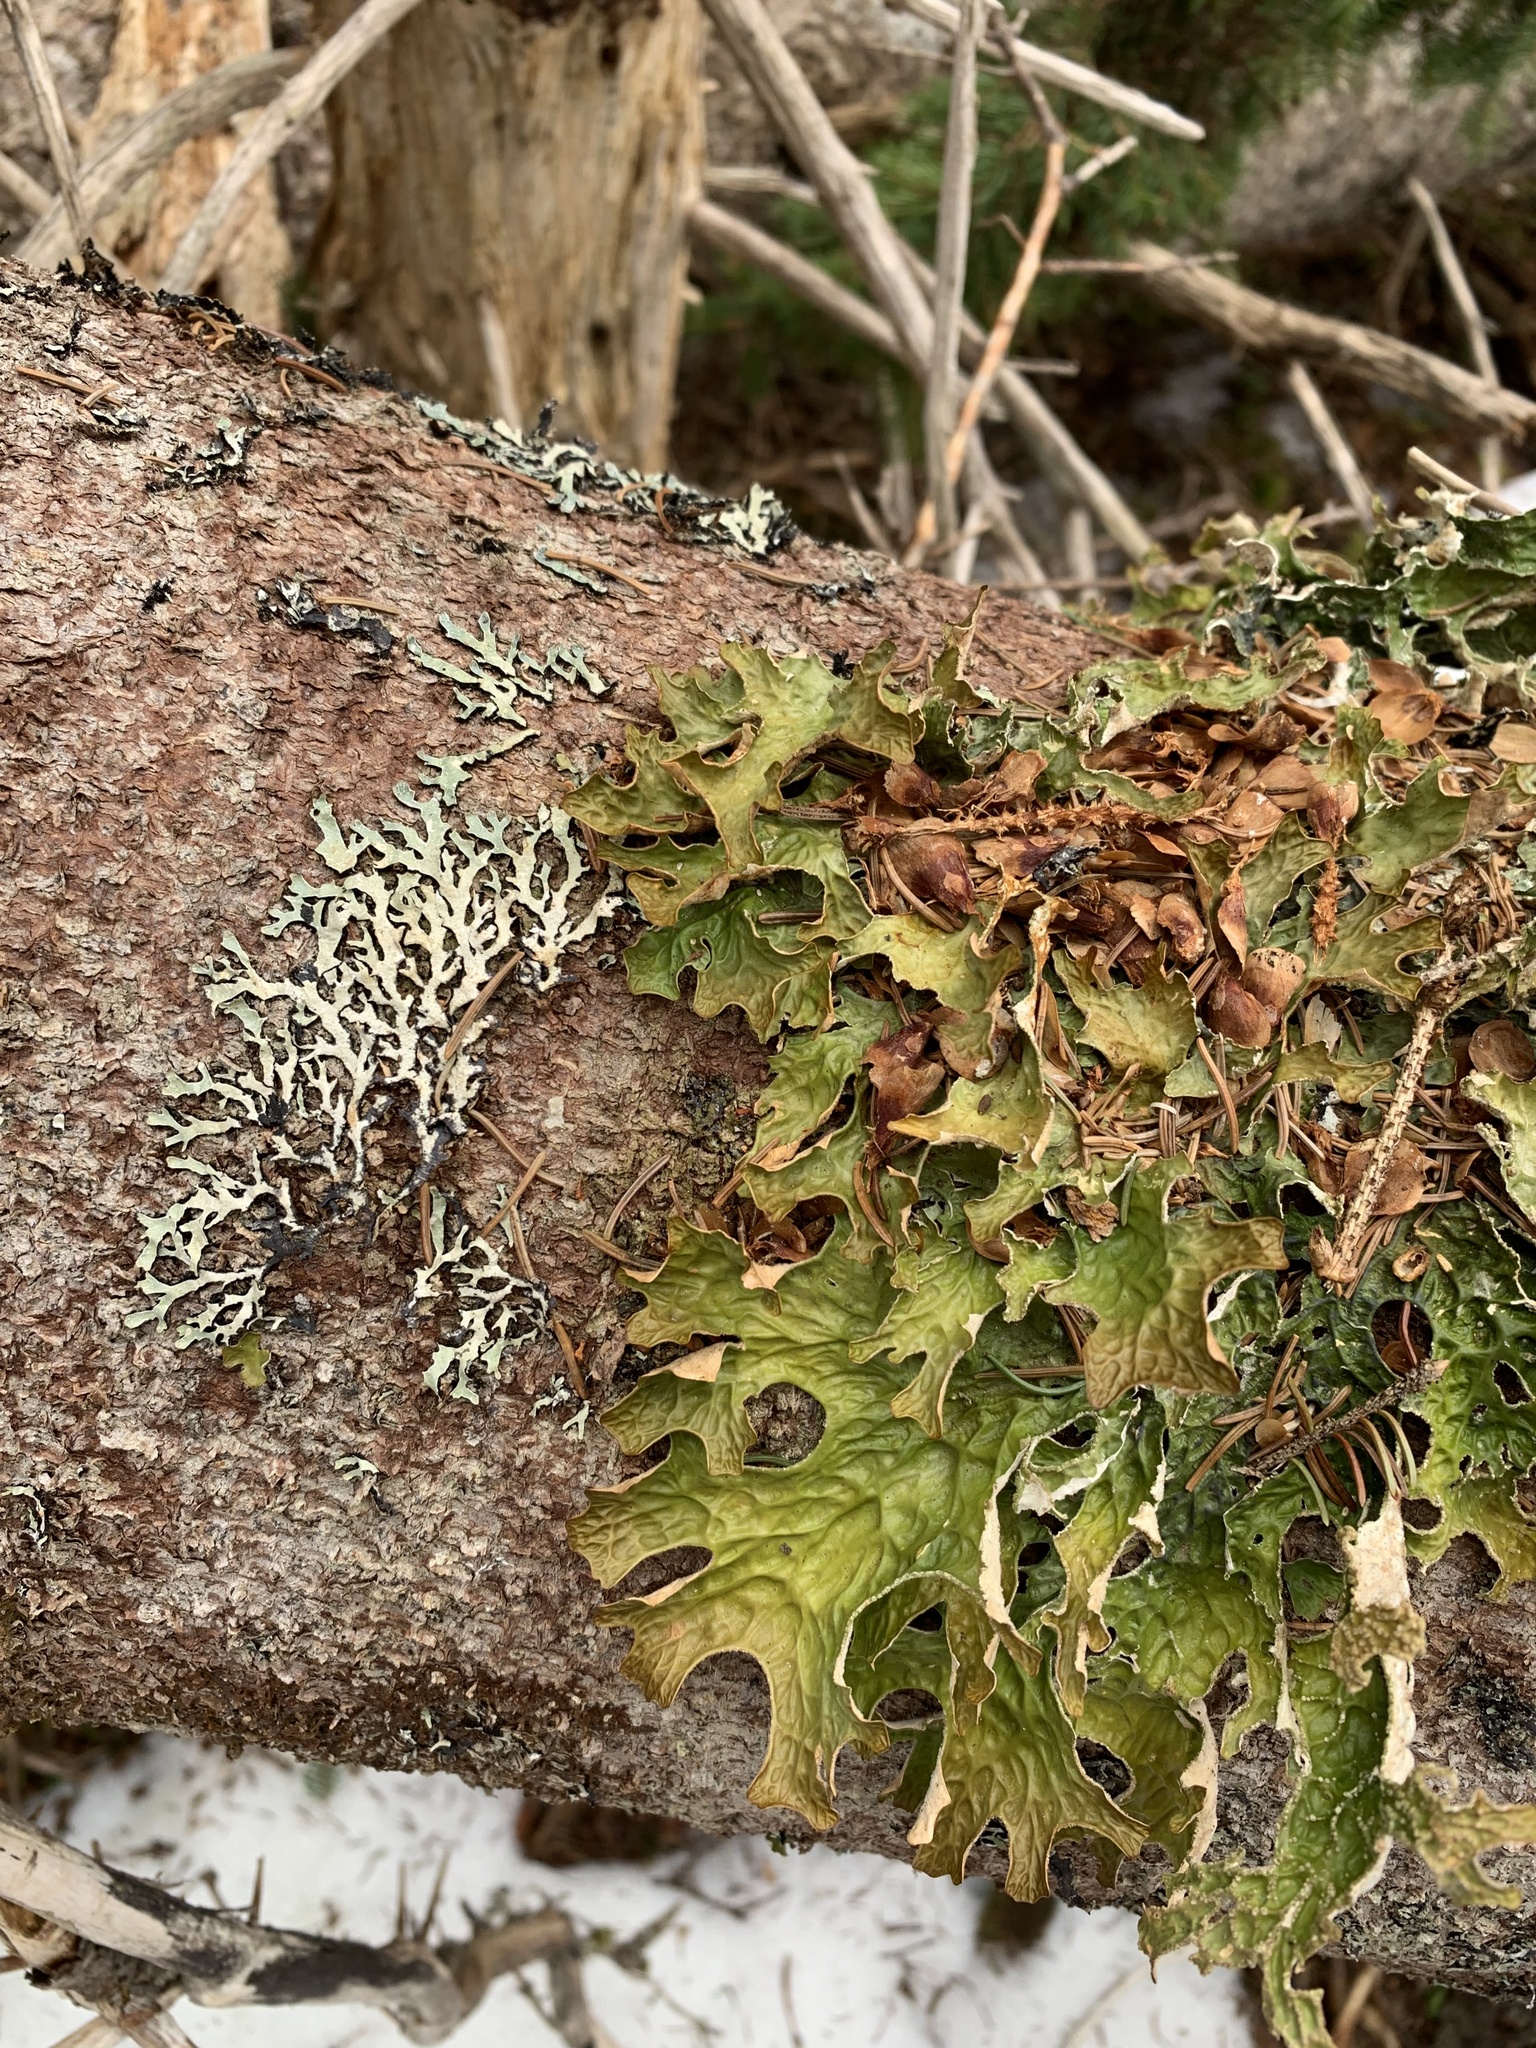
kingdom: Fungi
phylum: Ascomycota
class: Lecanoromycetes
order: Peltigerales
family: Lobariaceae
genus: Lobaria
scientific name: Lobaria pulmonaria
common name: Lungwort
